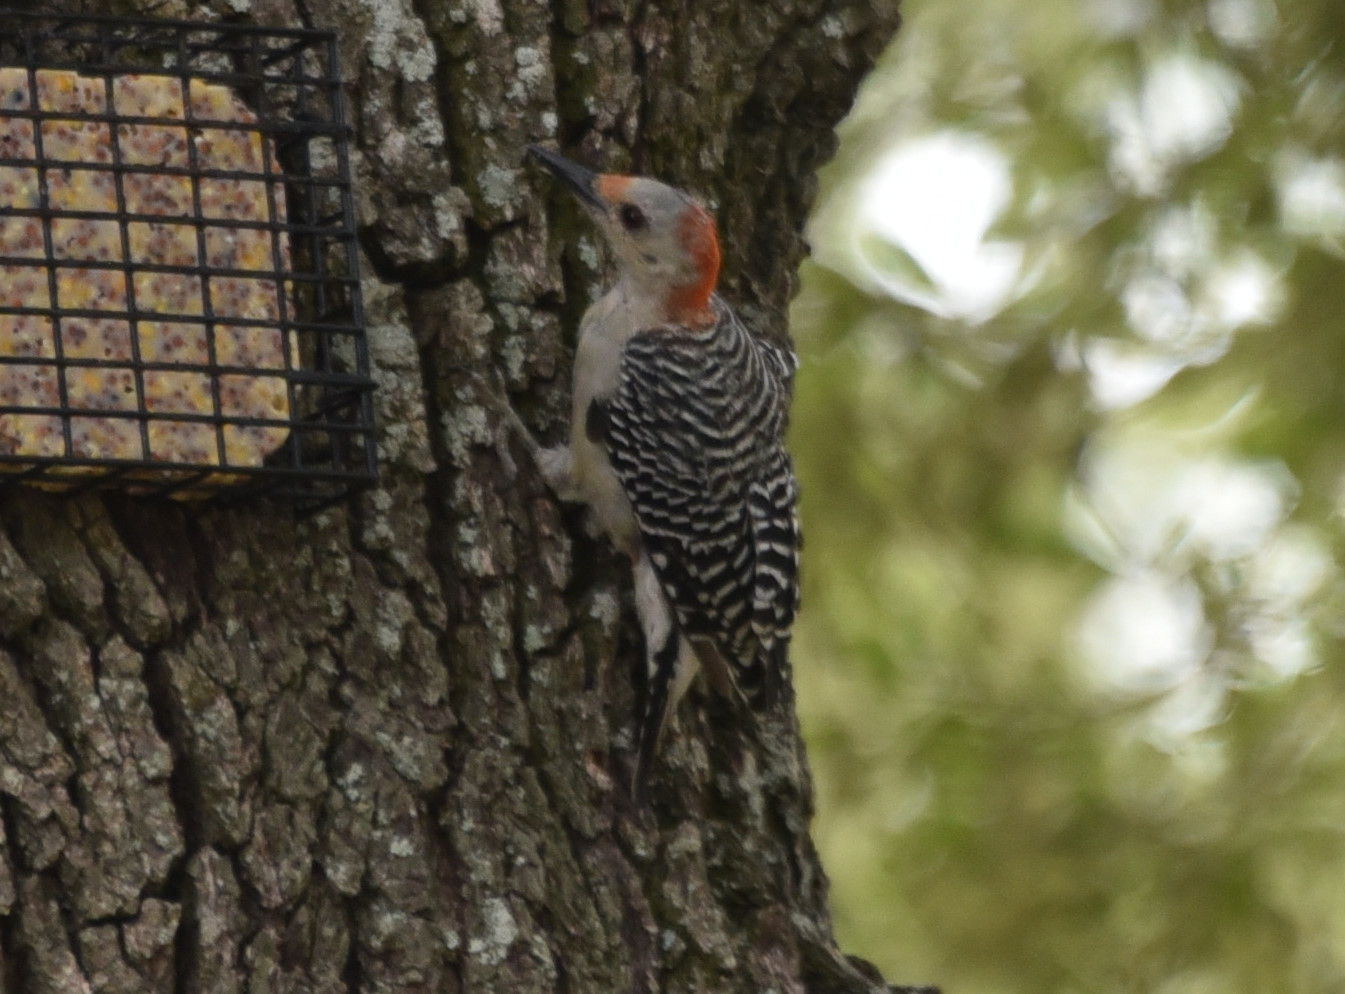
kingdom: Animalia
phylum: Chordata
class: Aves
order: Piciformes
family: Picidae
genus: Melanerpes
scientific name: Melanerpes carolinus
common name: Red-bellied woodpecker
